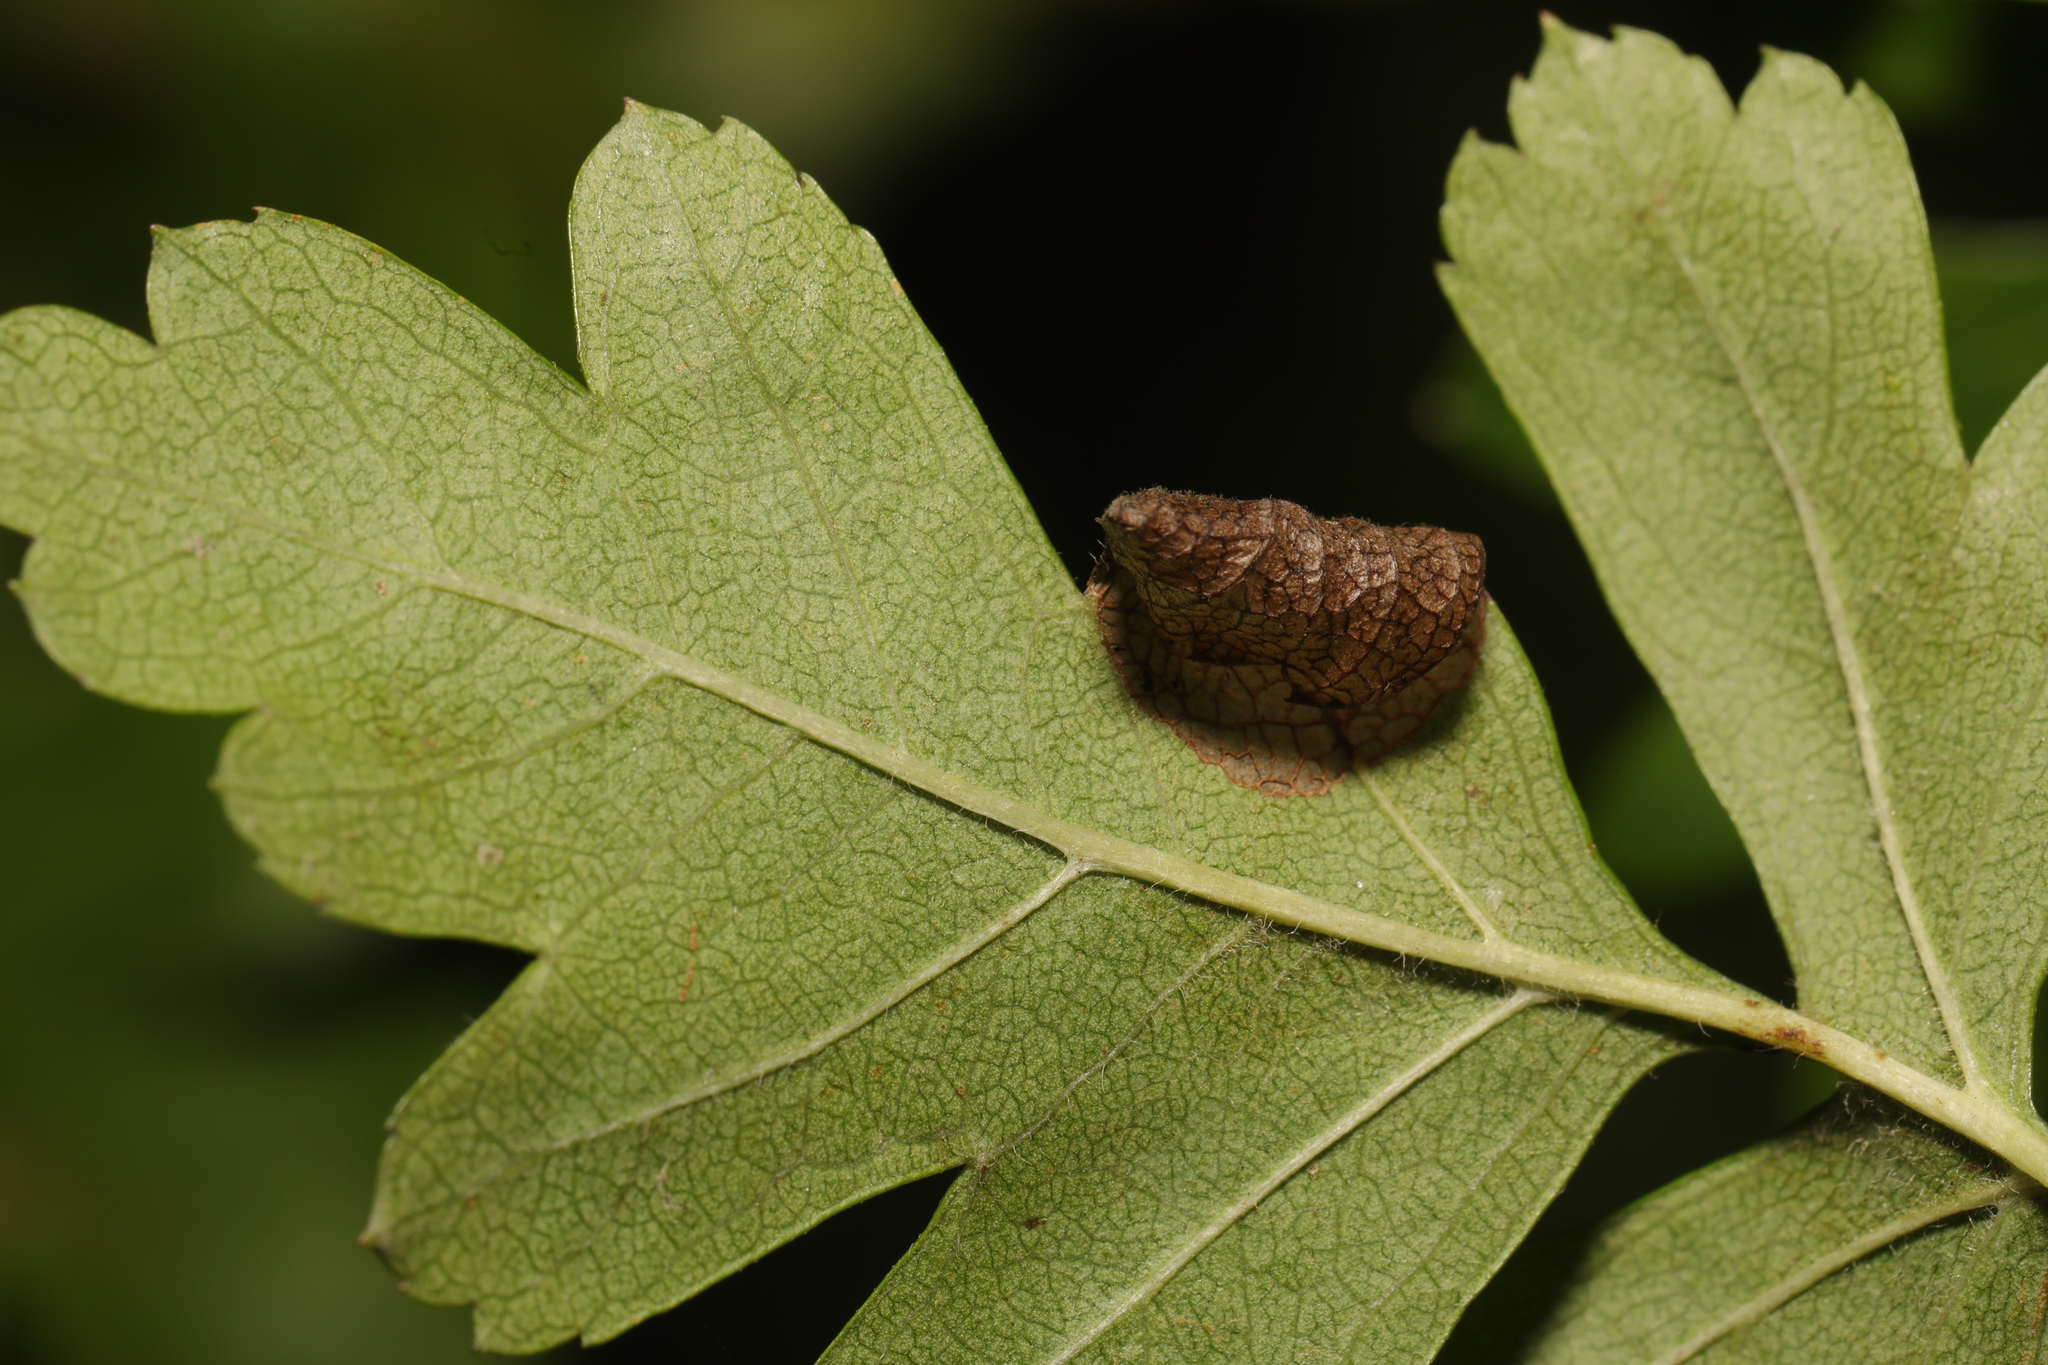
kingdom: Animalia
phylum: Arthropoda
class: Insecta
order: Lepidoptera
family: Gracillariidae
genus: Parornix
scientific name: Parornix anglicella
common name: Hawthorn slender
